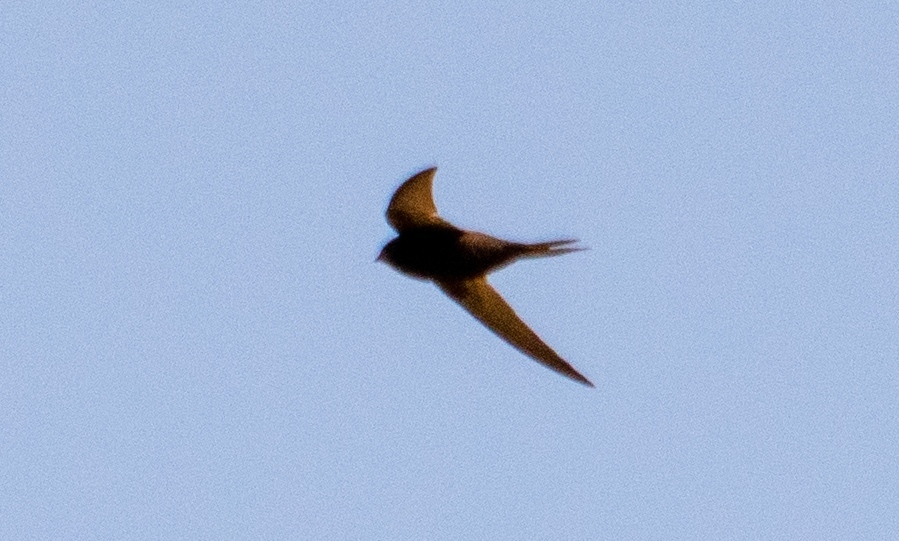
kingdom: Animalia
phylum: Chordata
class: Aves
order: Apodiformes
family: Apodidae
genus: Apus
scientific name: Apus apus
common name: Common swift
